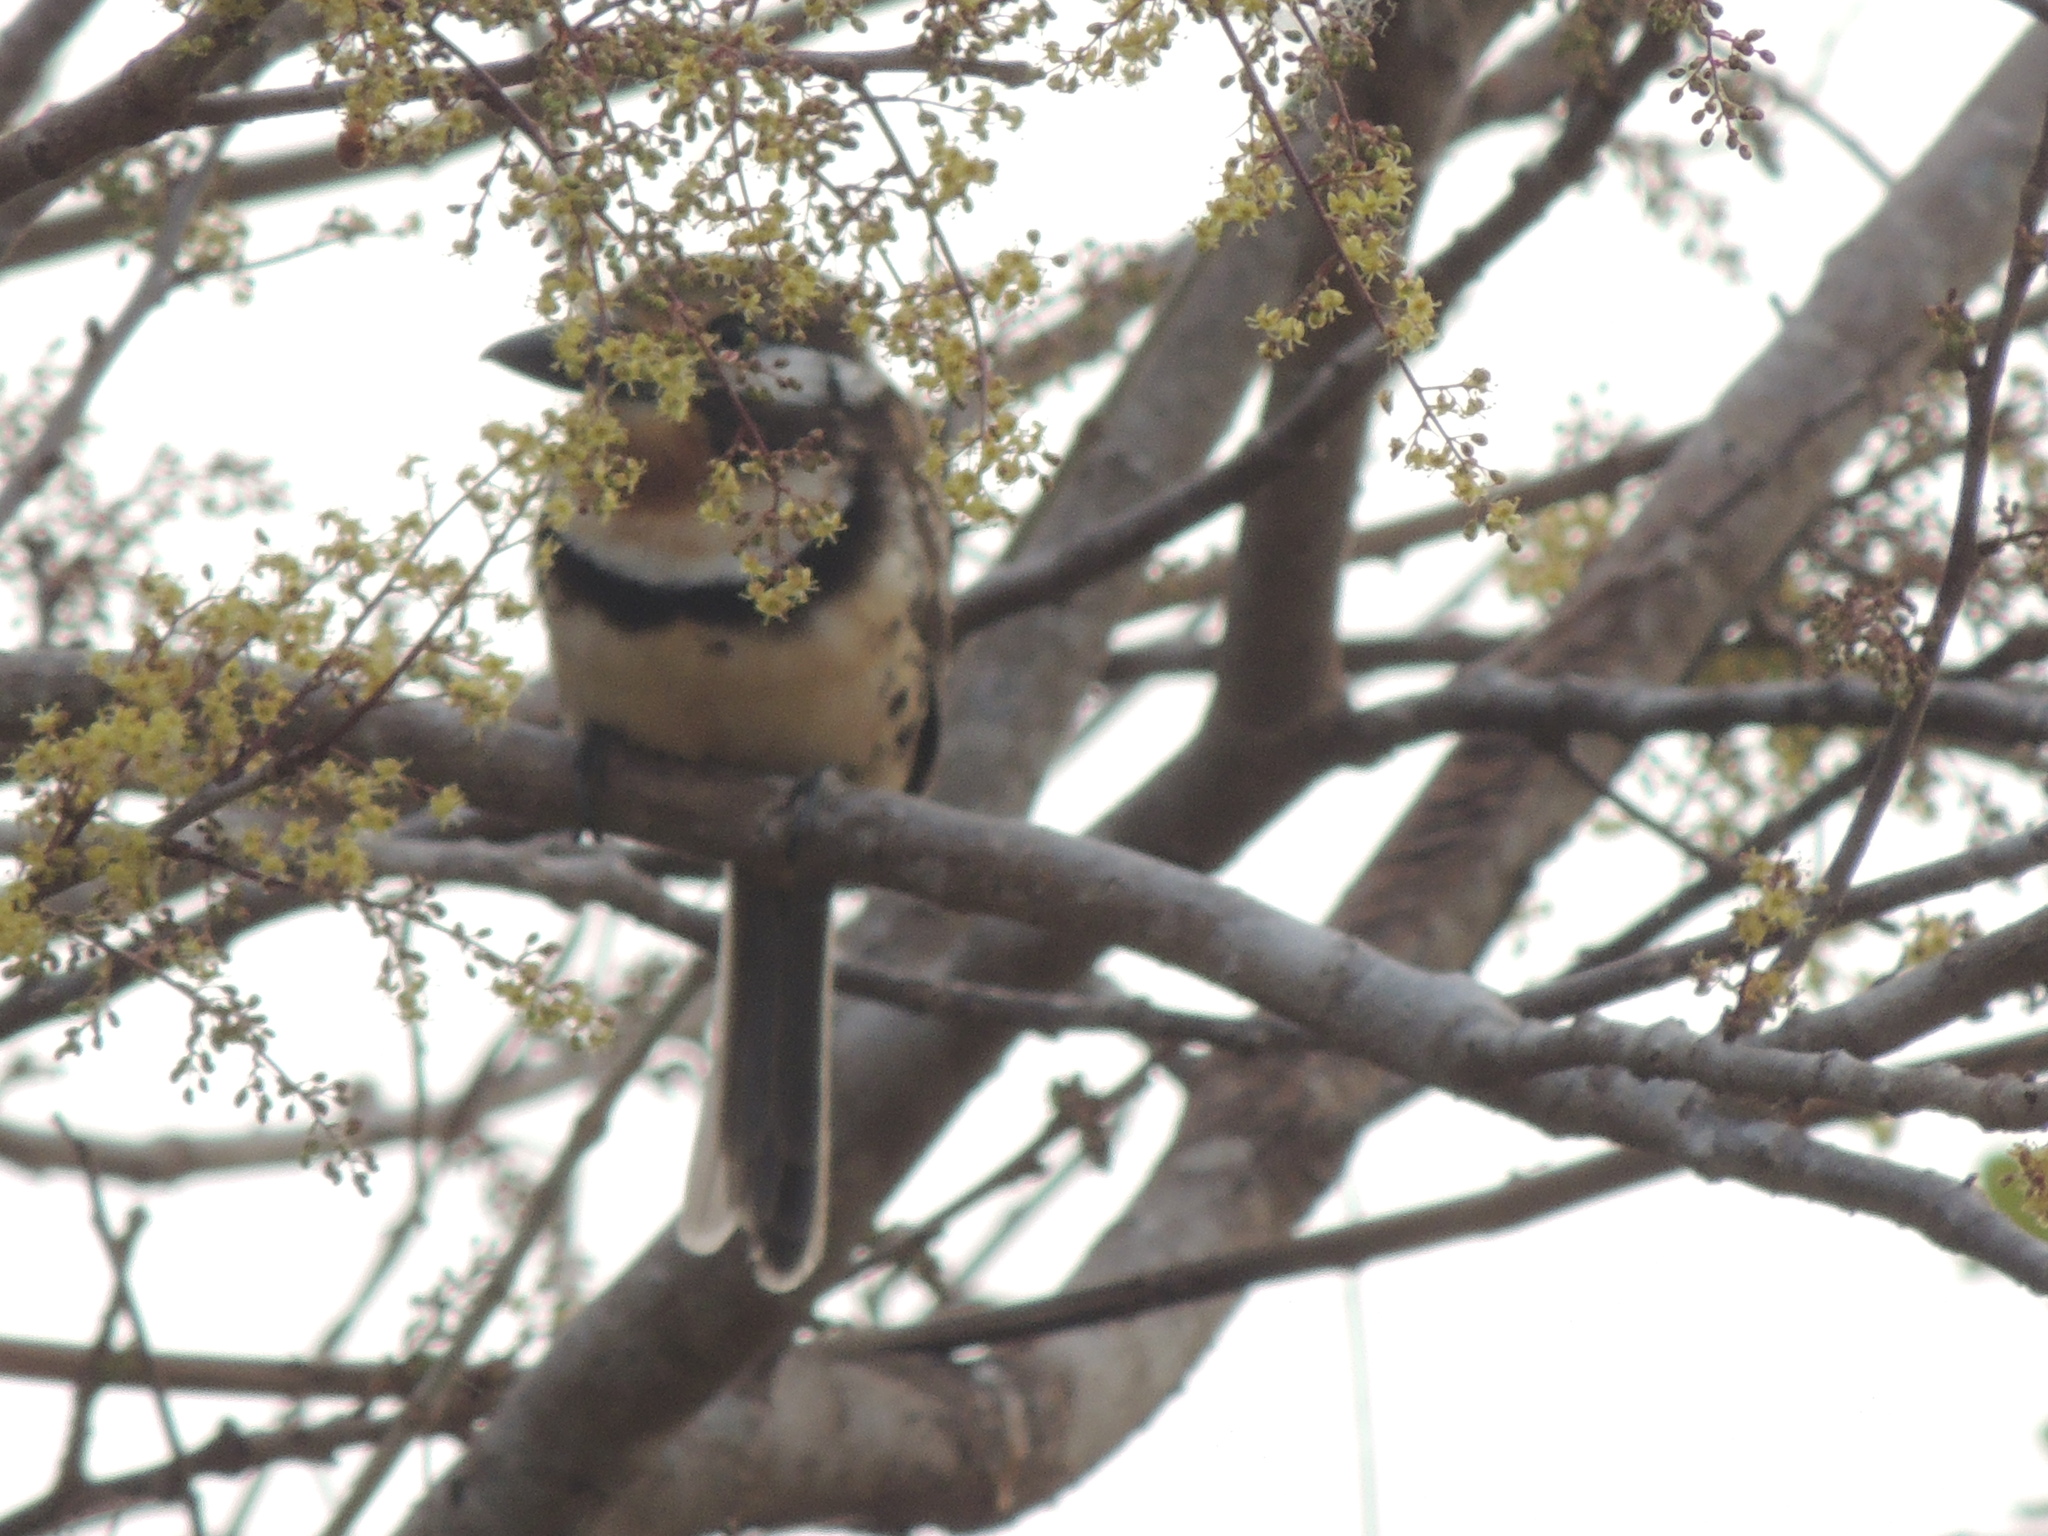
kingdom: Animalia
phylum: Chordata
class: Aves
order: Piciformes
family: Bucconidae
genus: Hypnelus
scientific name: Hypnelus ruficollis
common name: Russet-throated puffbird
